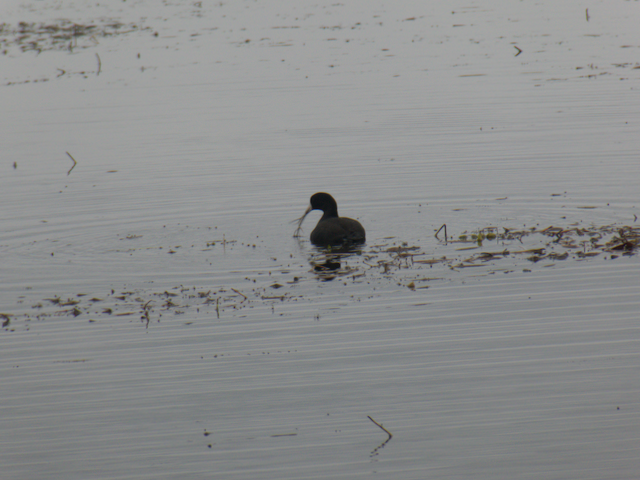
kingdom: Animalia
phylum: Chordata
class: Aves
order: Gruiformes
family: Rallidae
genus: Fulica
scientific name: Fulica americana
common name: American coot
